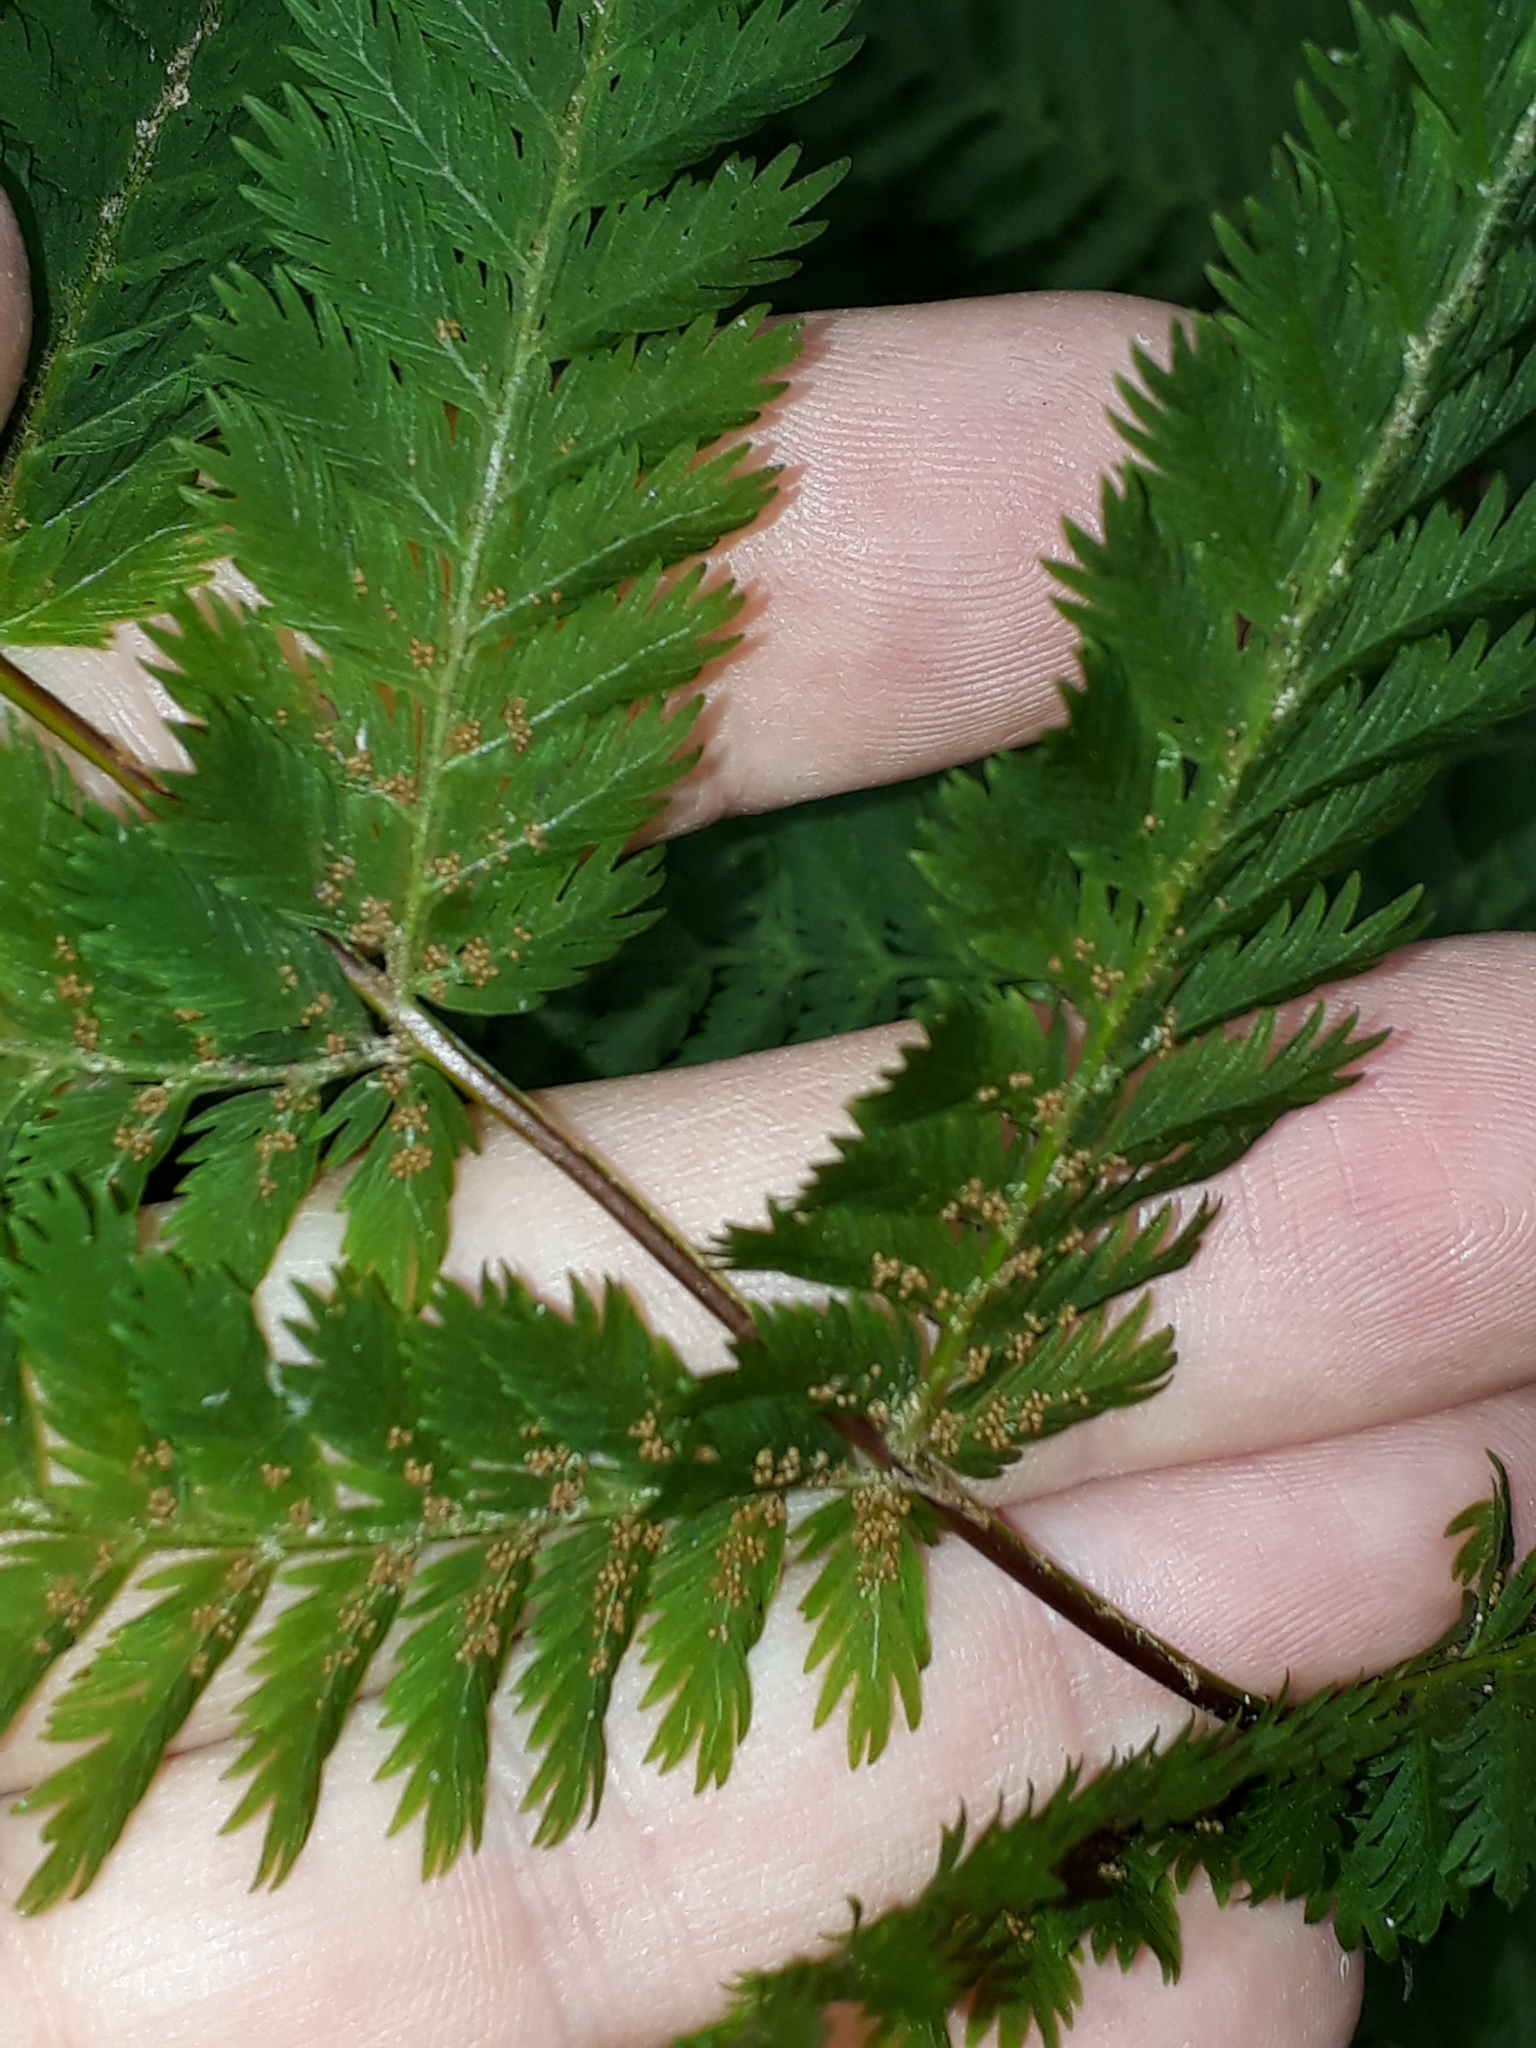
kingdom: Plantae
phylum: Tracheophyta
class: Polypodiopsida
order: Osmundales
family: Osmundaceae
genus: Leptopteris
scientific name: Leptopteris hymenophylloides
